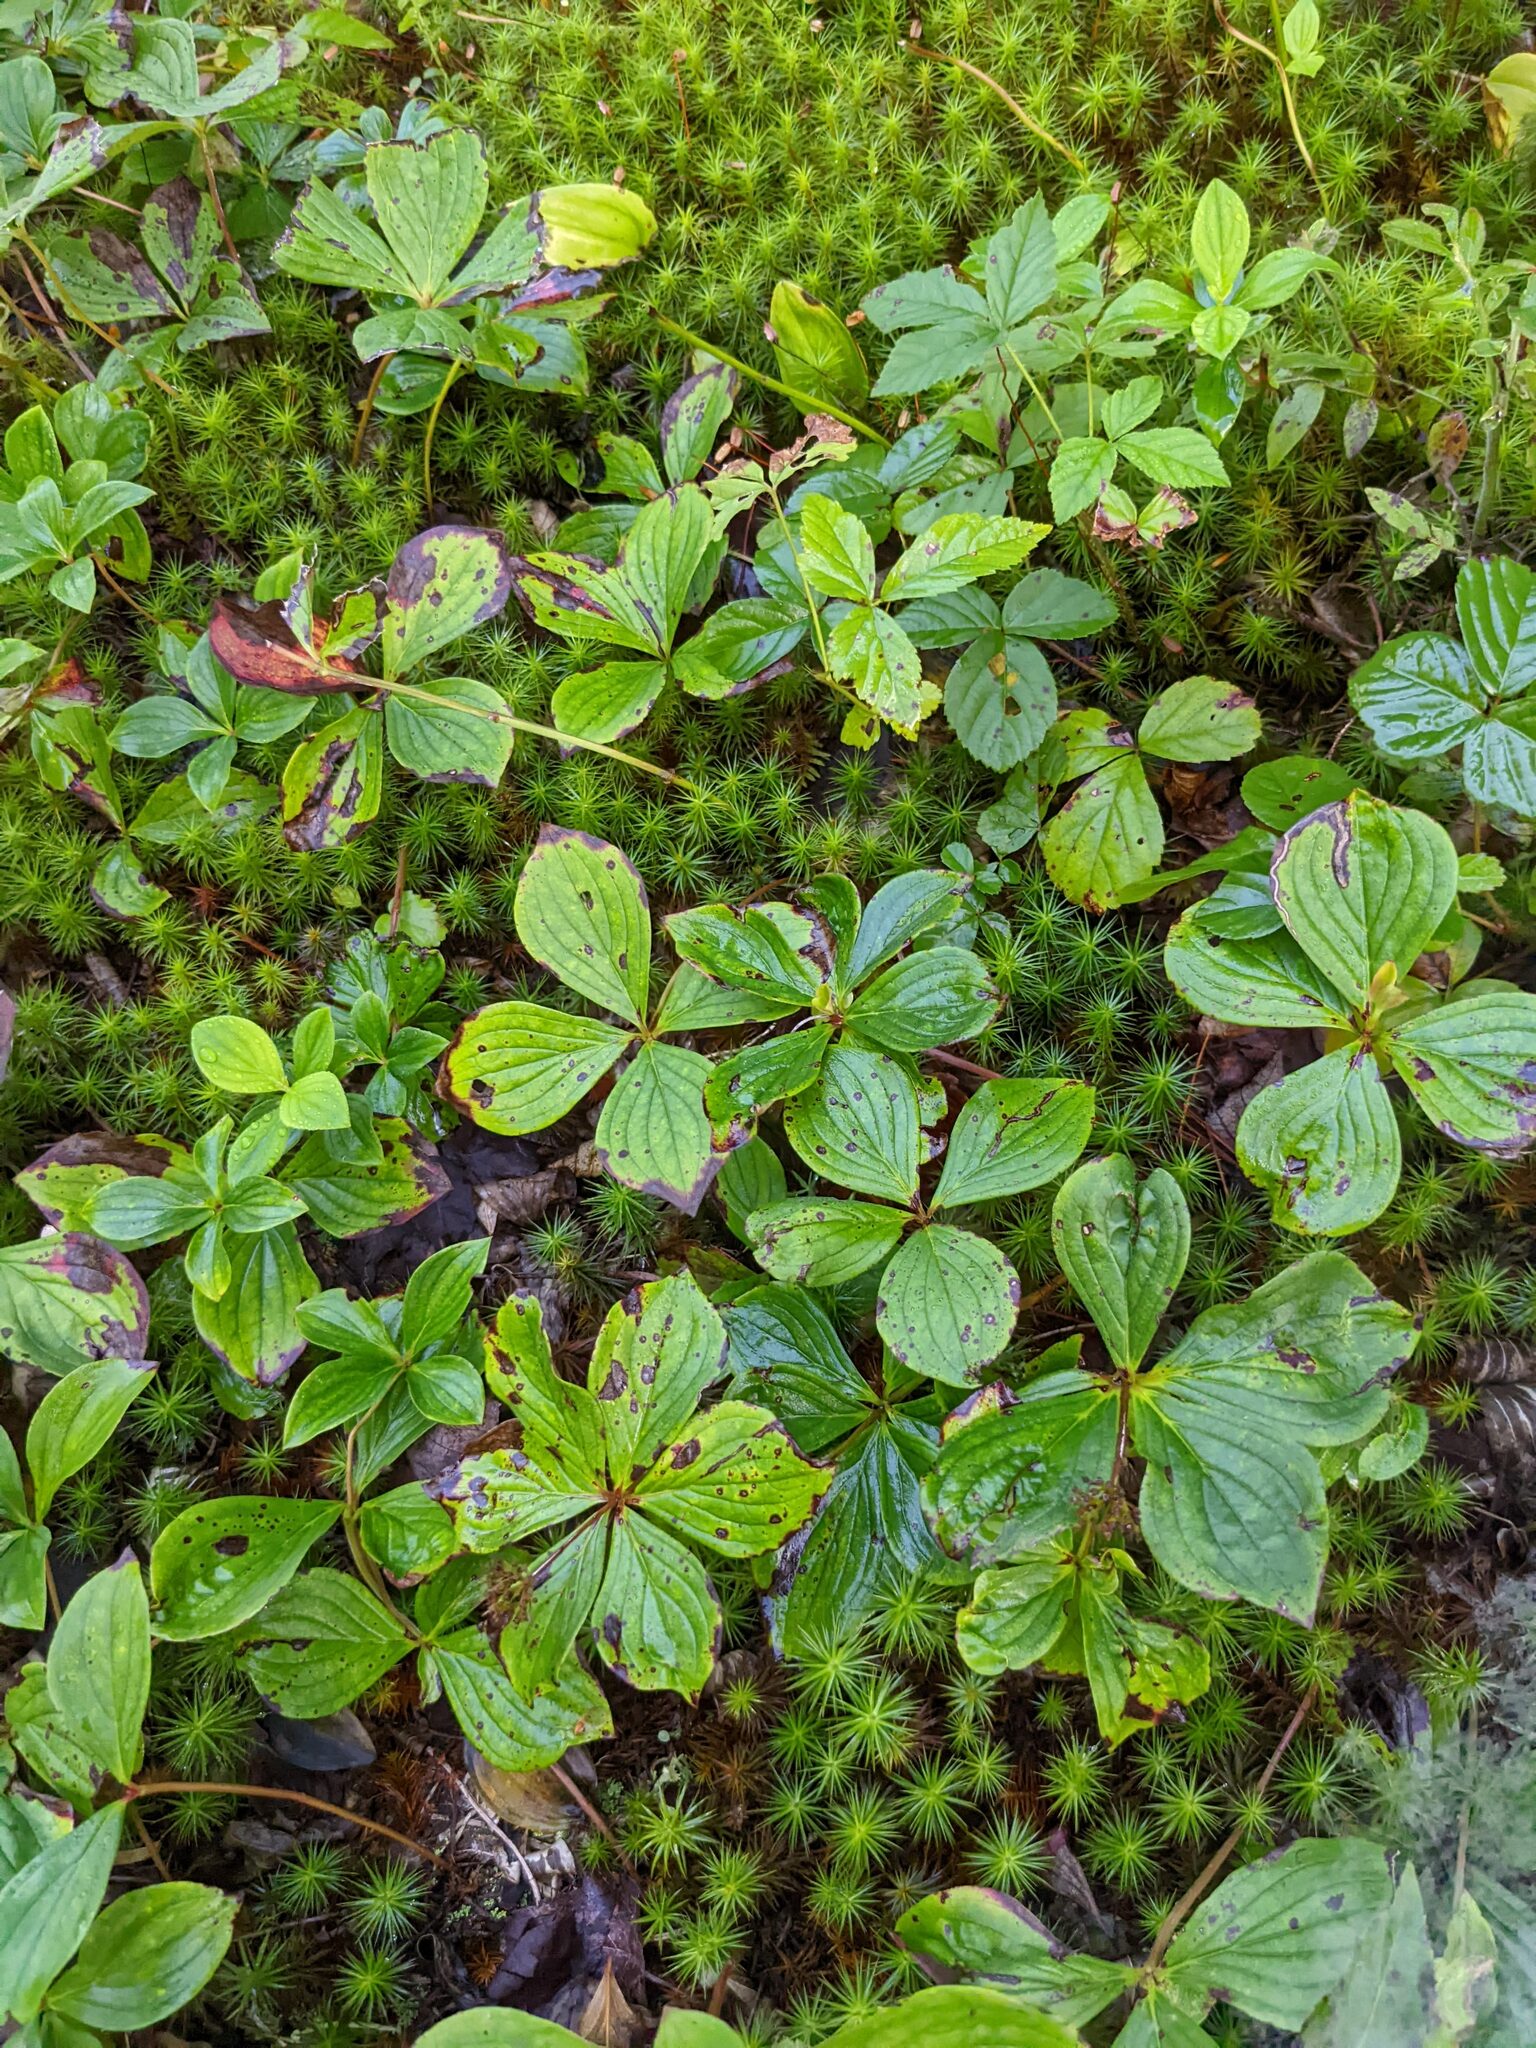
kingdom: Plantae
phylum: Tracheophyta
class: Magnoliopsida
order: Cornales
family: Cornaceae
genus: Cornus
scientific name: Cornus canadensis
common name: Creeping dogwood
